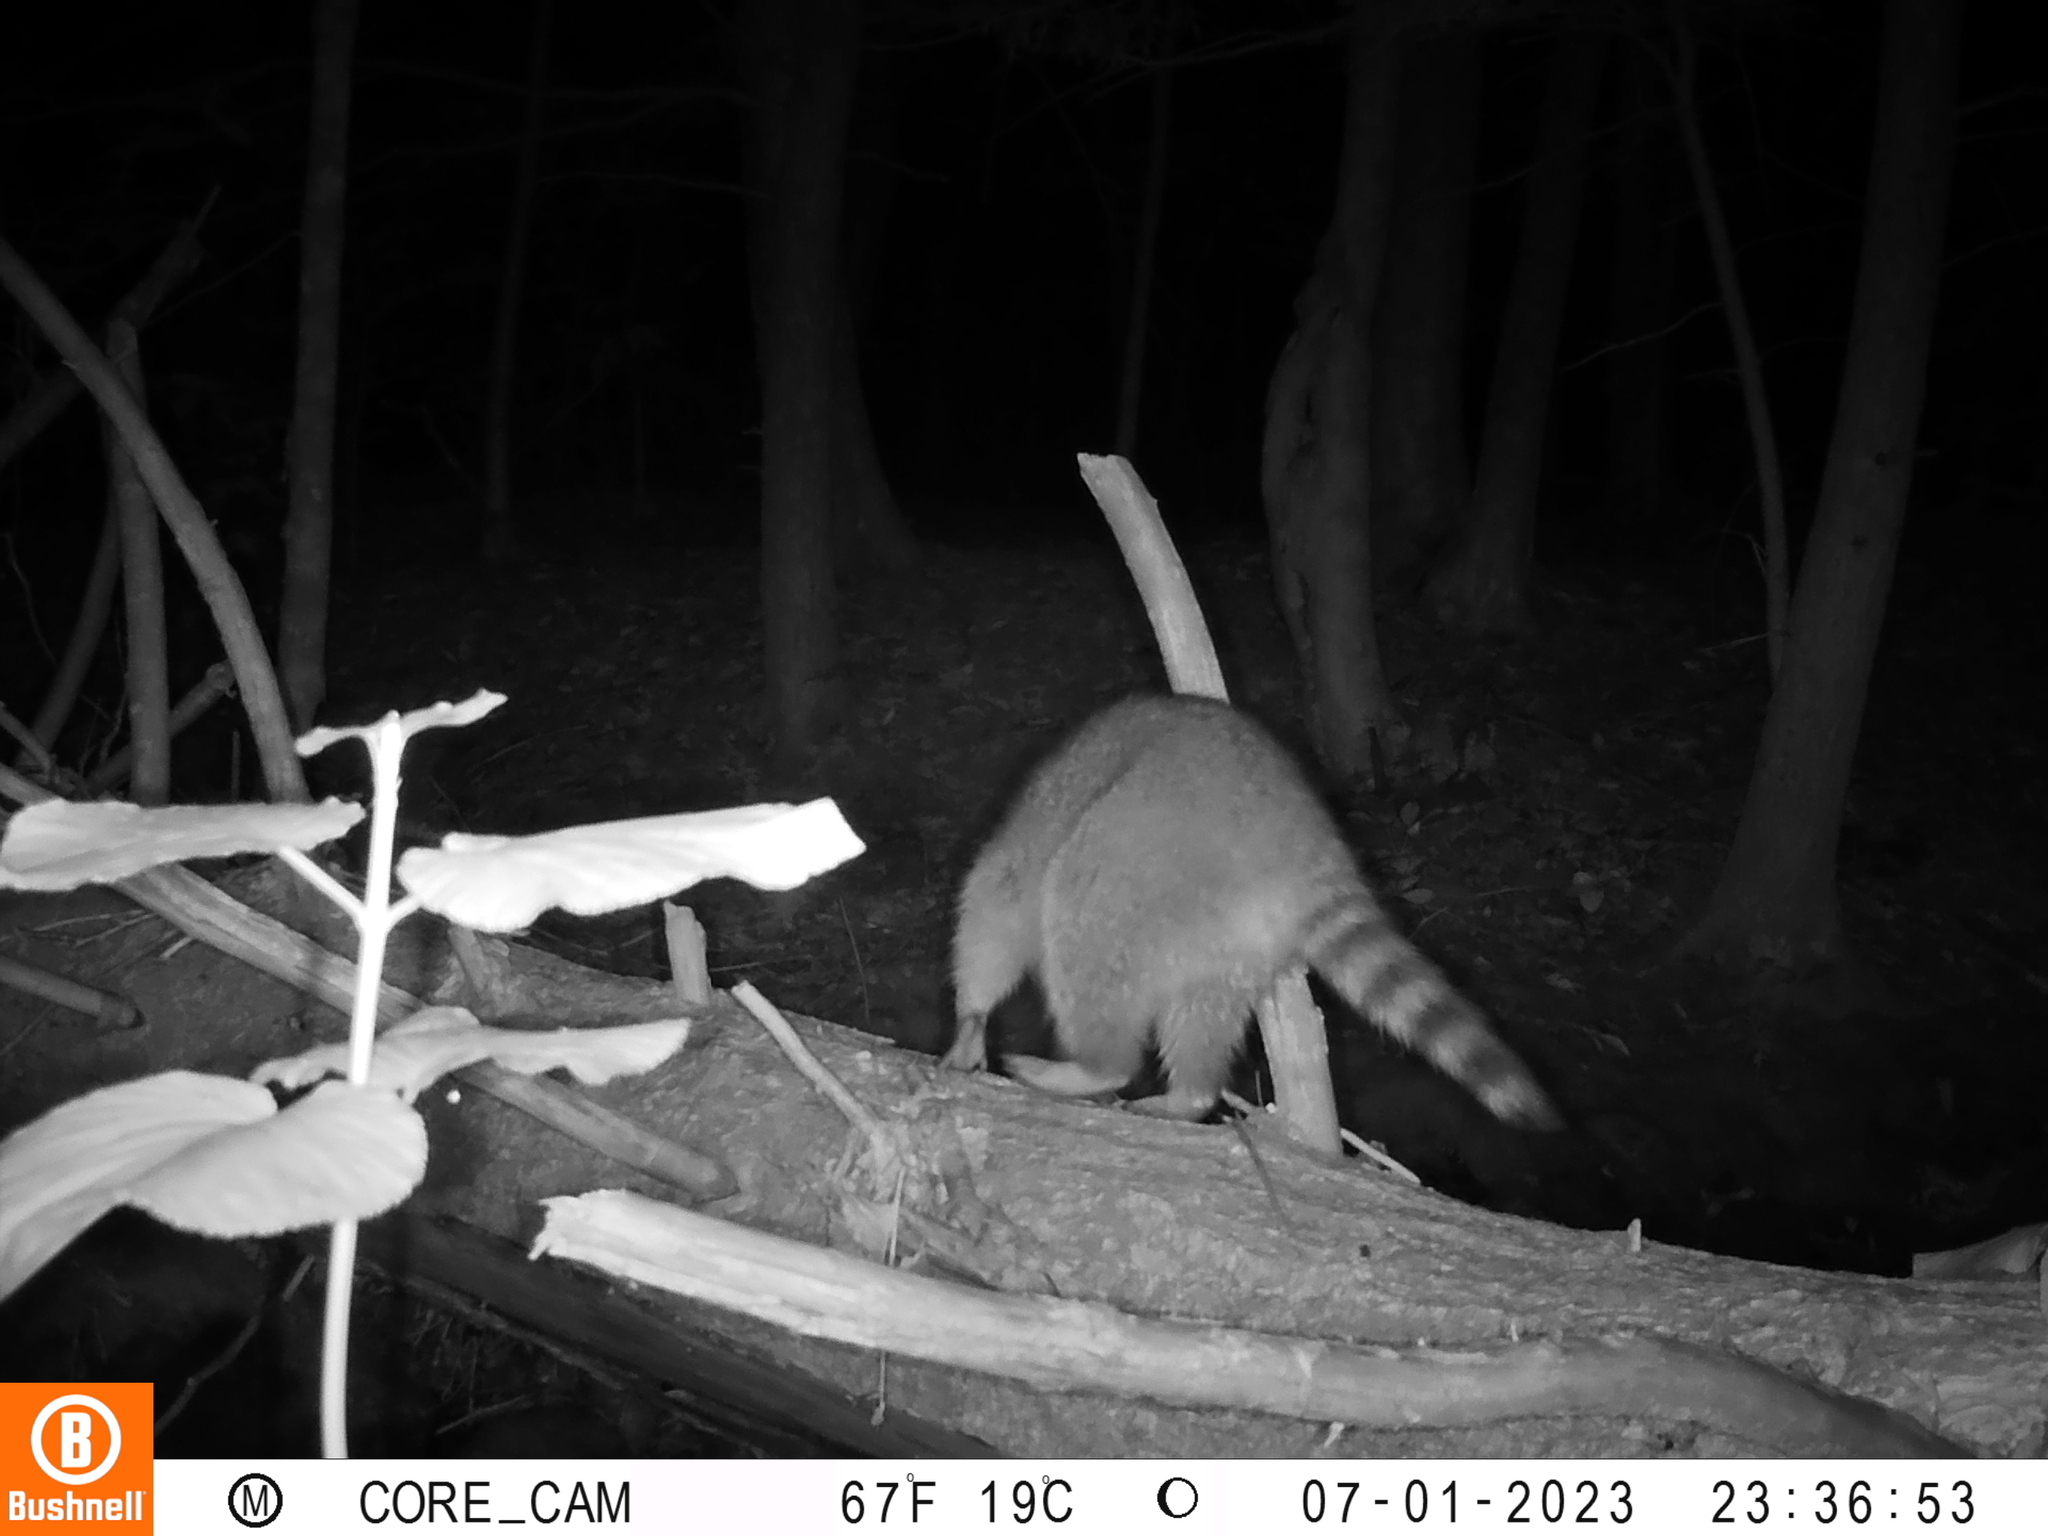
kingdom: Animalia
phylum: Chordata
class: Mammalia
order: Carnivora
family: Procyonidae
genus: Procyon
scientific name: Procyon lotor
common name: Raccoon
